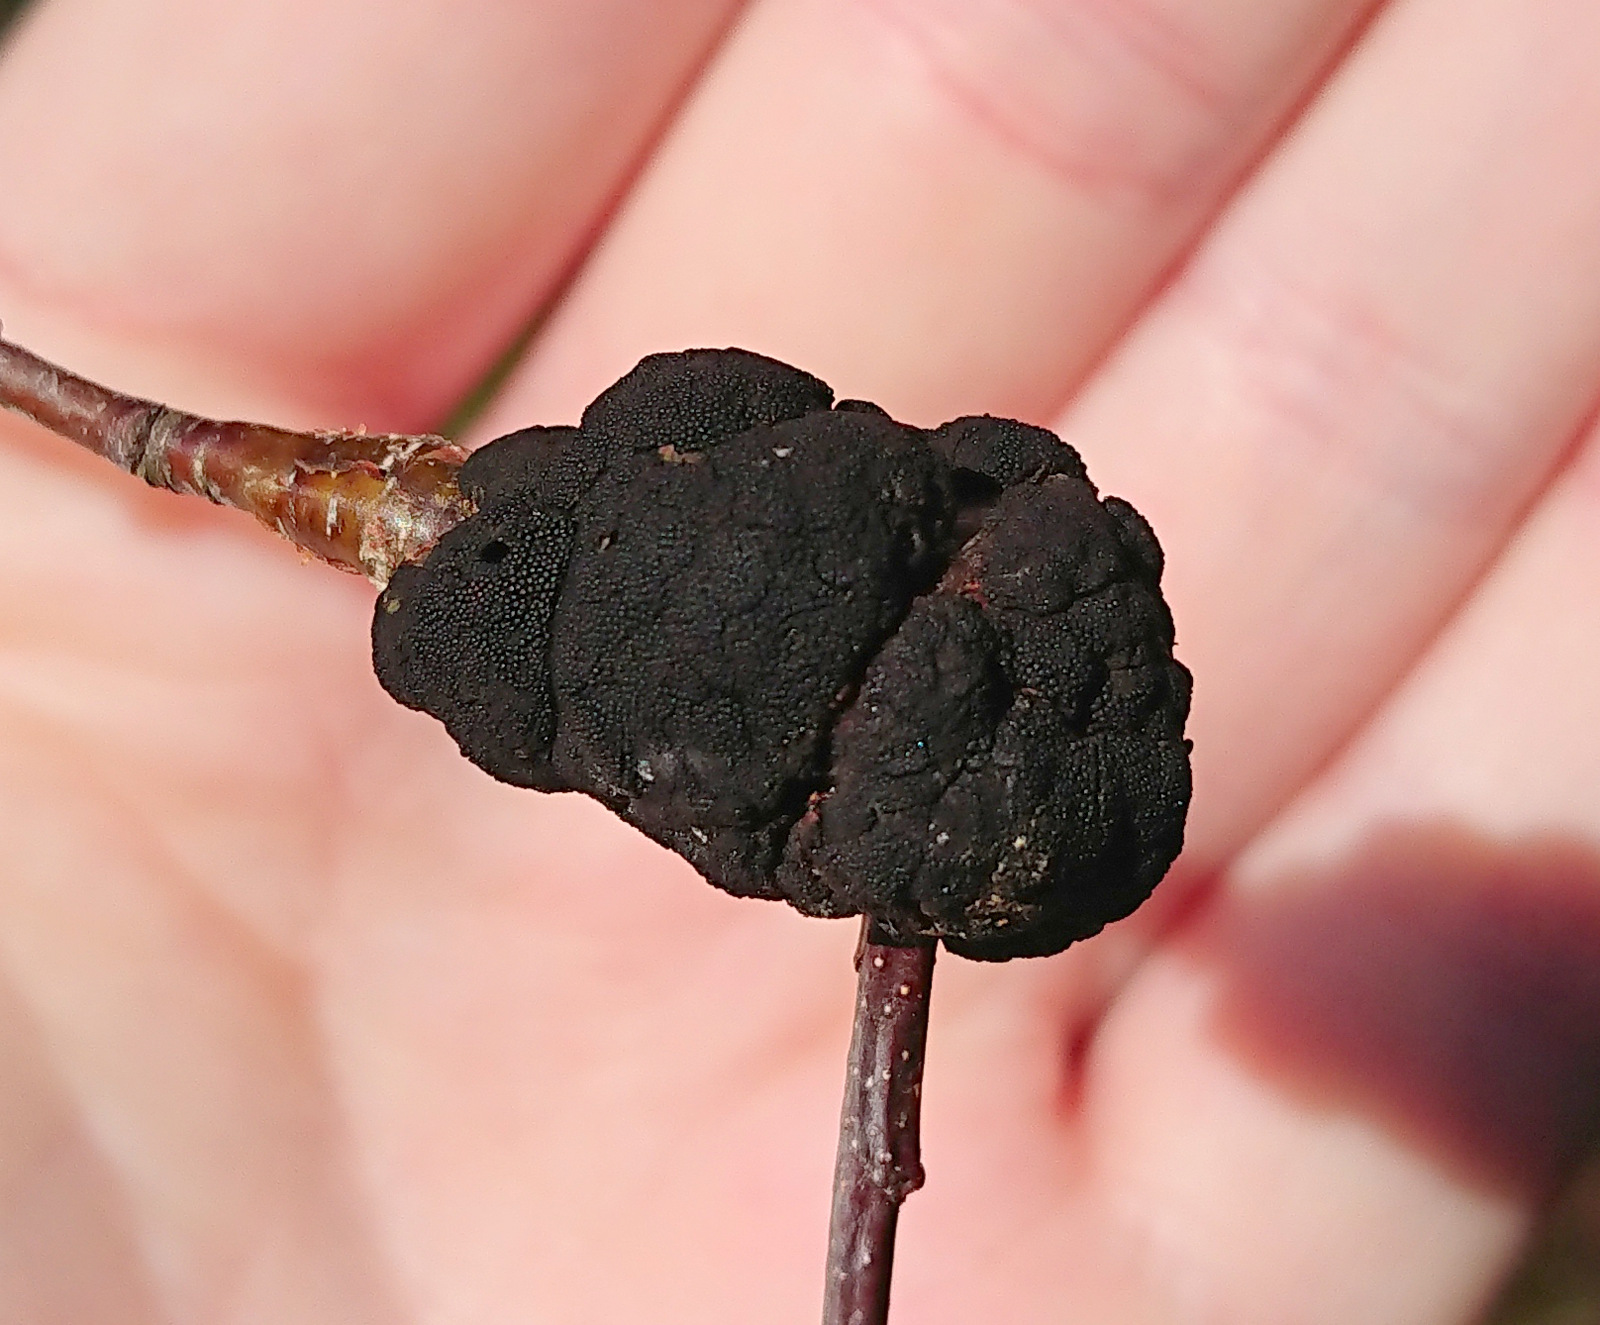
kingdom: Fungi
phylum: Ascomycota
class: Dothideomycetes
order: Venturiales
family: Venturiaceae
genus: Apiosporina
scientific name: Apiosporina morbosa
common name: Black knot
